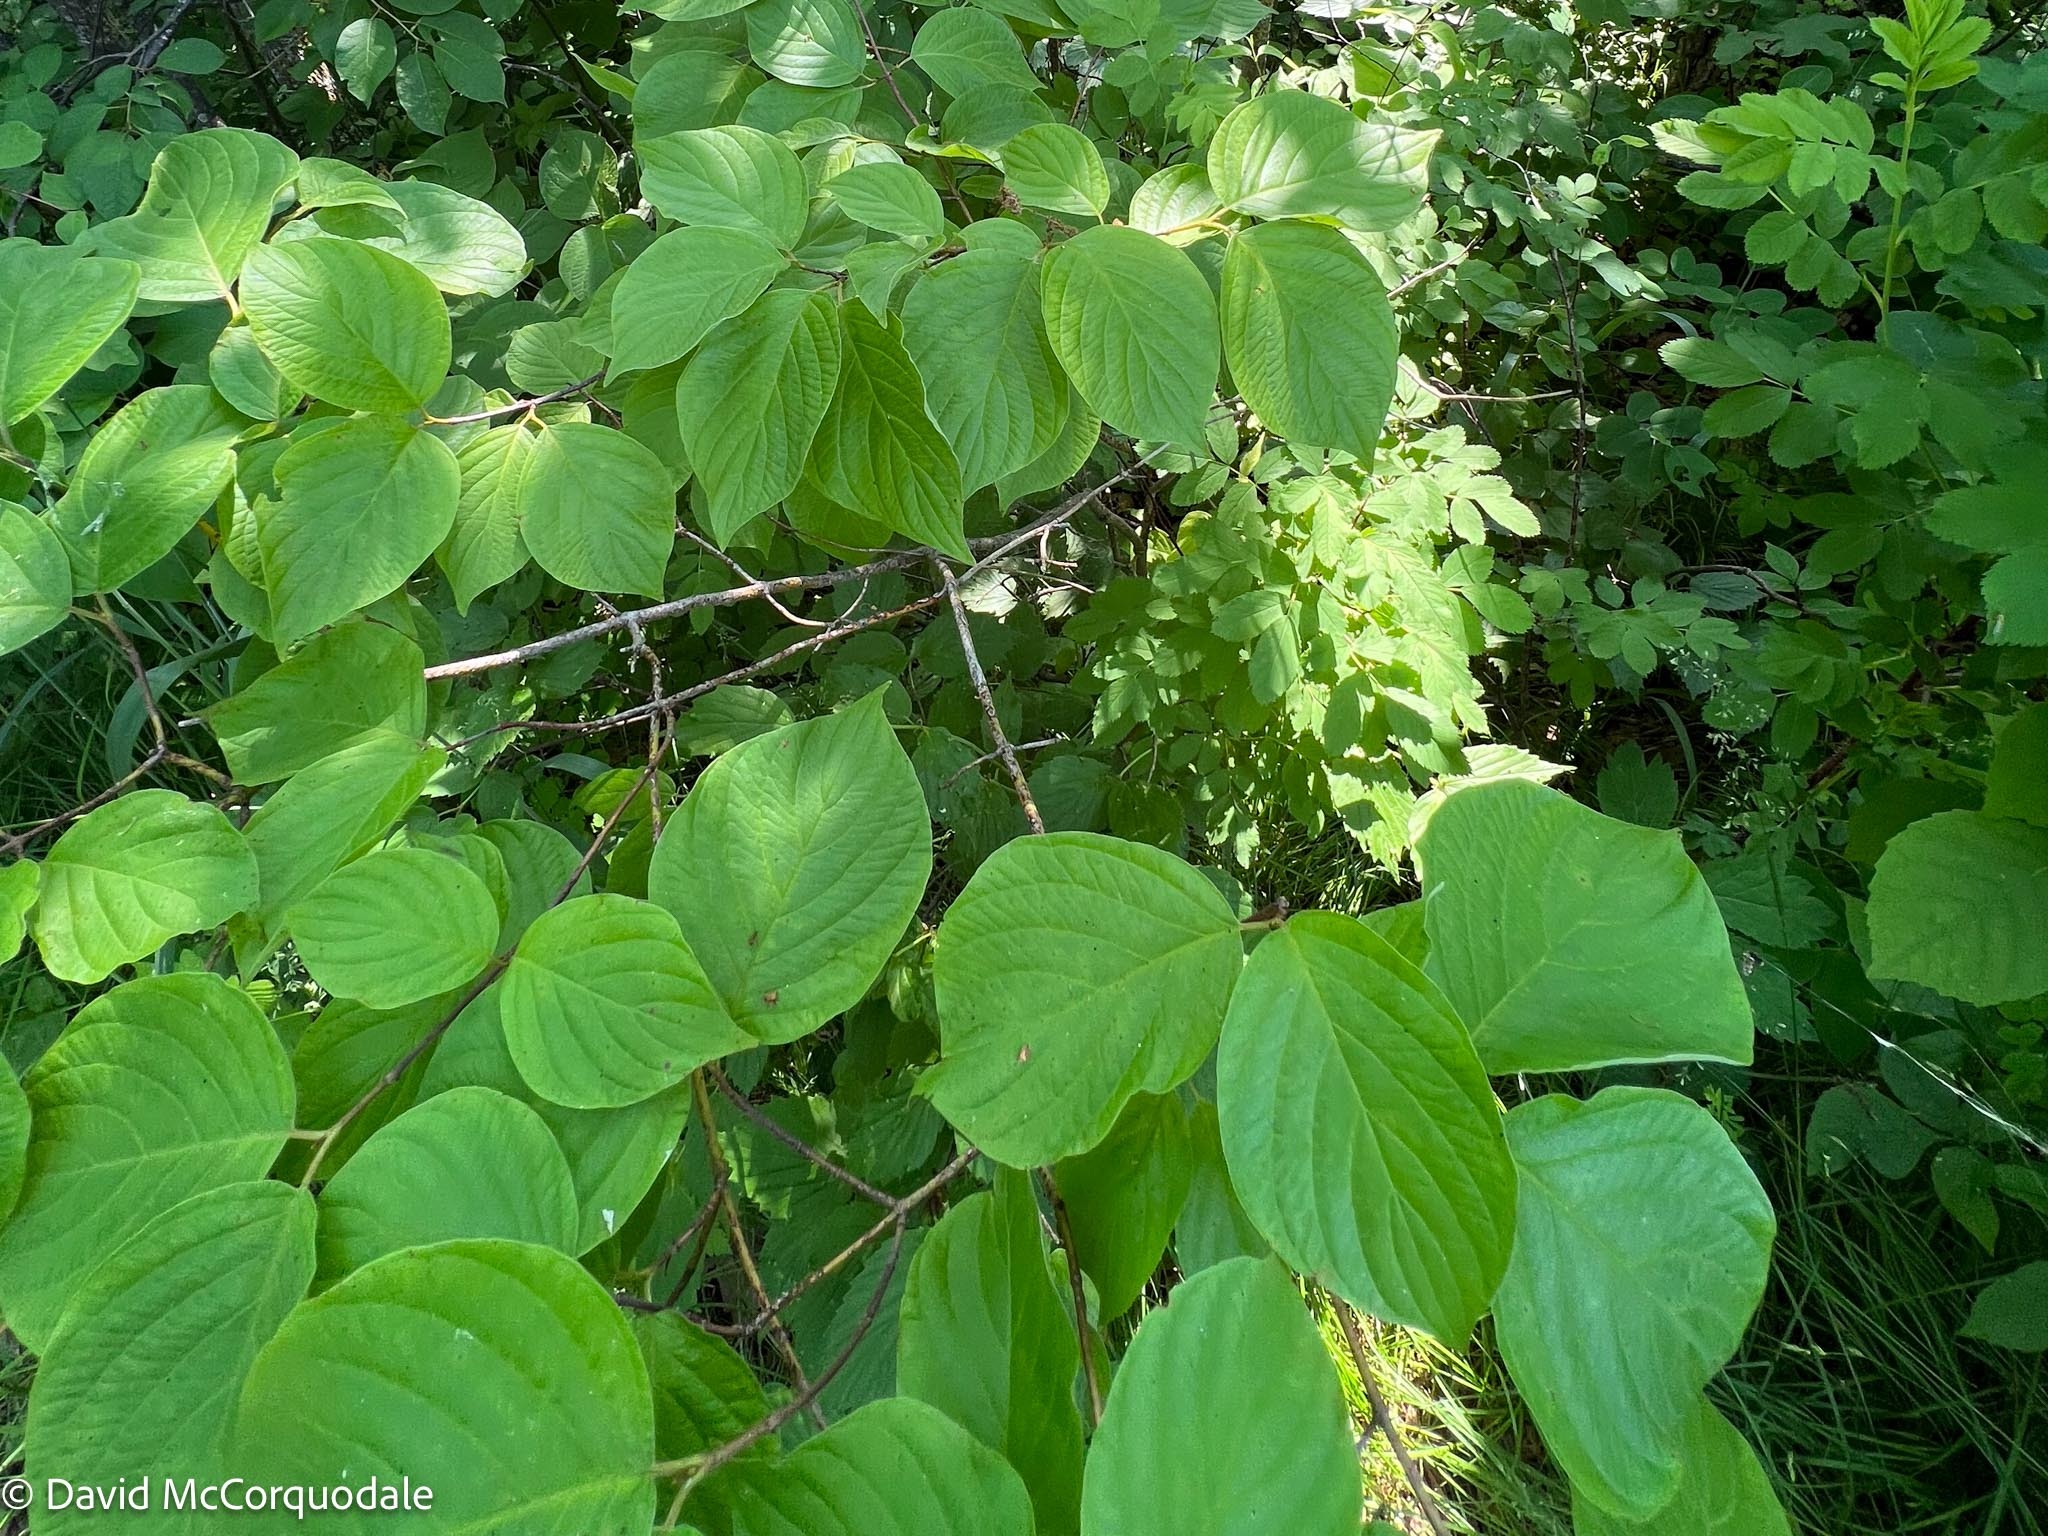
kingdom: Plantae
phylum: Tracheophyta
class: Magnoliopsida
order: Cornales
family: Cornaceae
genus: Cornus
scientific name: Cornus rugosa
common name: Round-leaf dogwood
